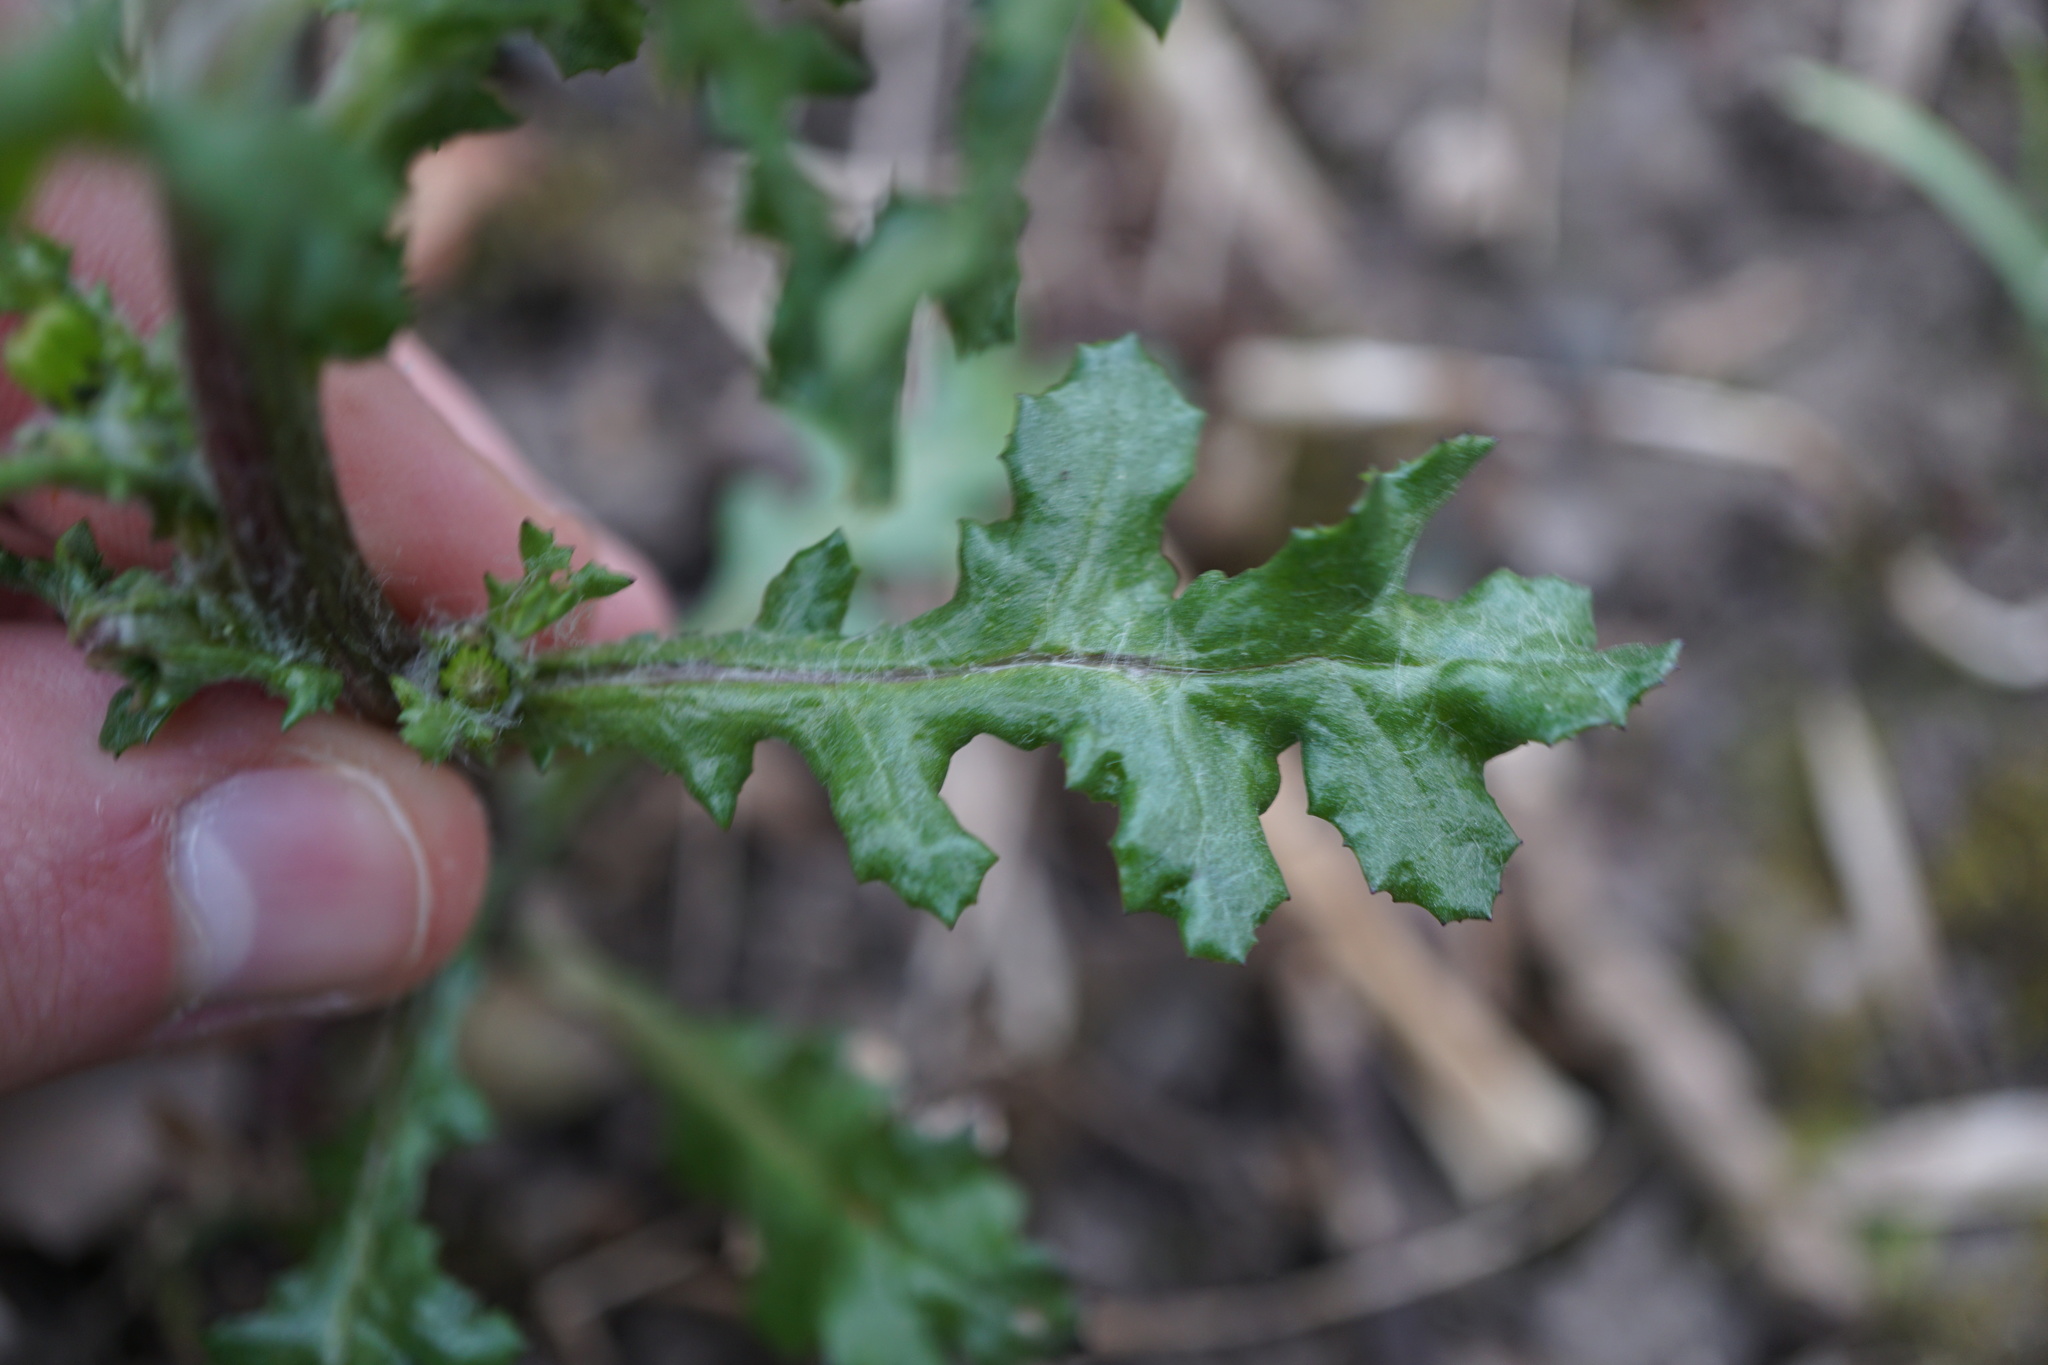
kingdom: Plantae
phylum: Tracheophyta
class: Magnoliopsida
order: Asterales
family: Asteraceae
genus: Senecio
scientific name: Senecio vulgaris
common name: Old-man-in-the-spring
